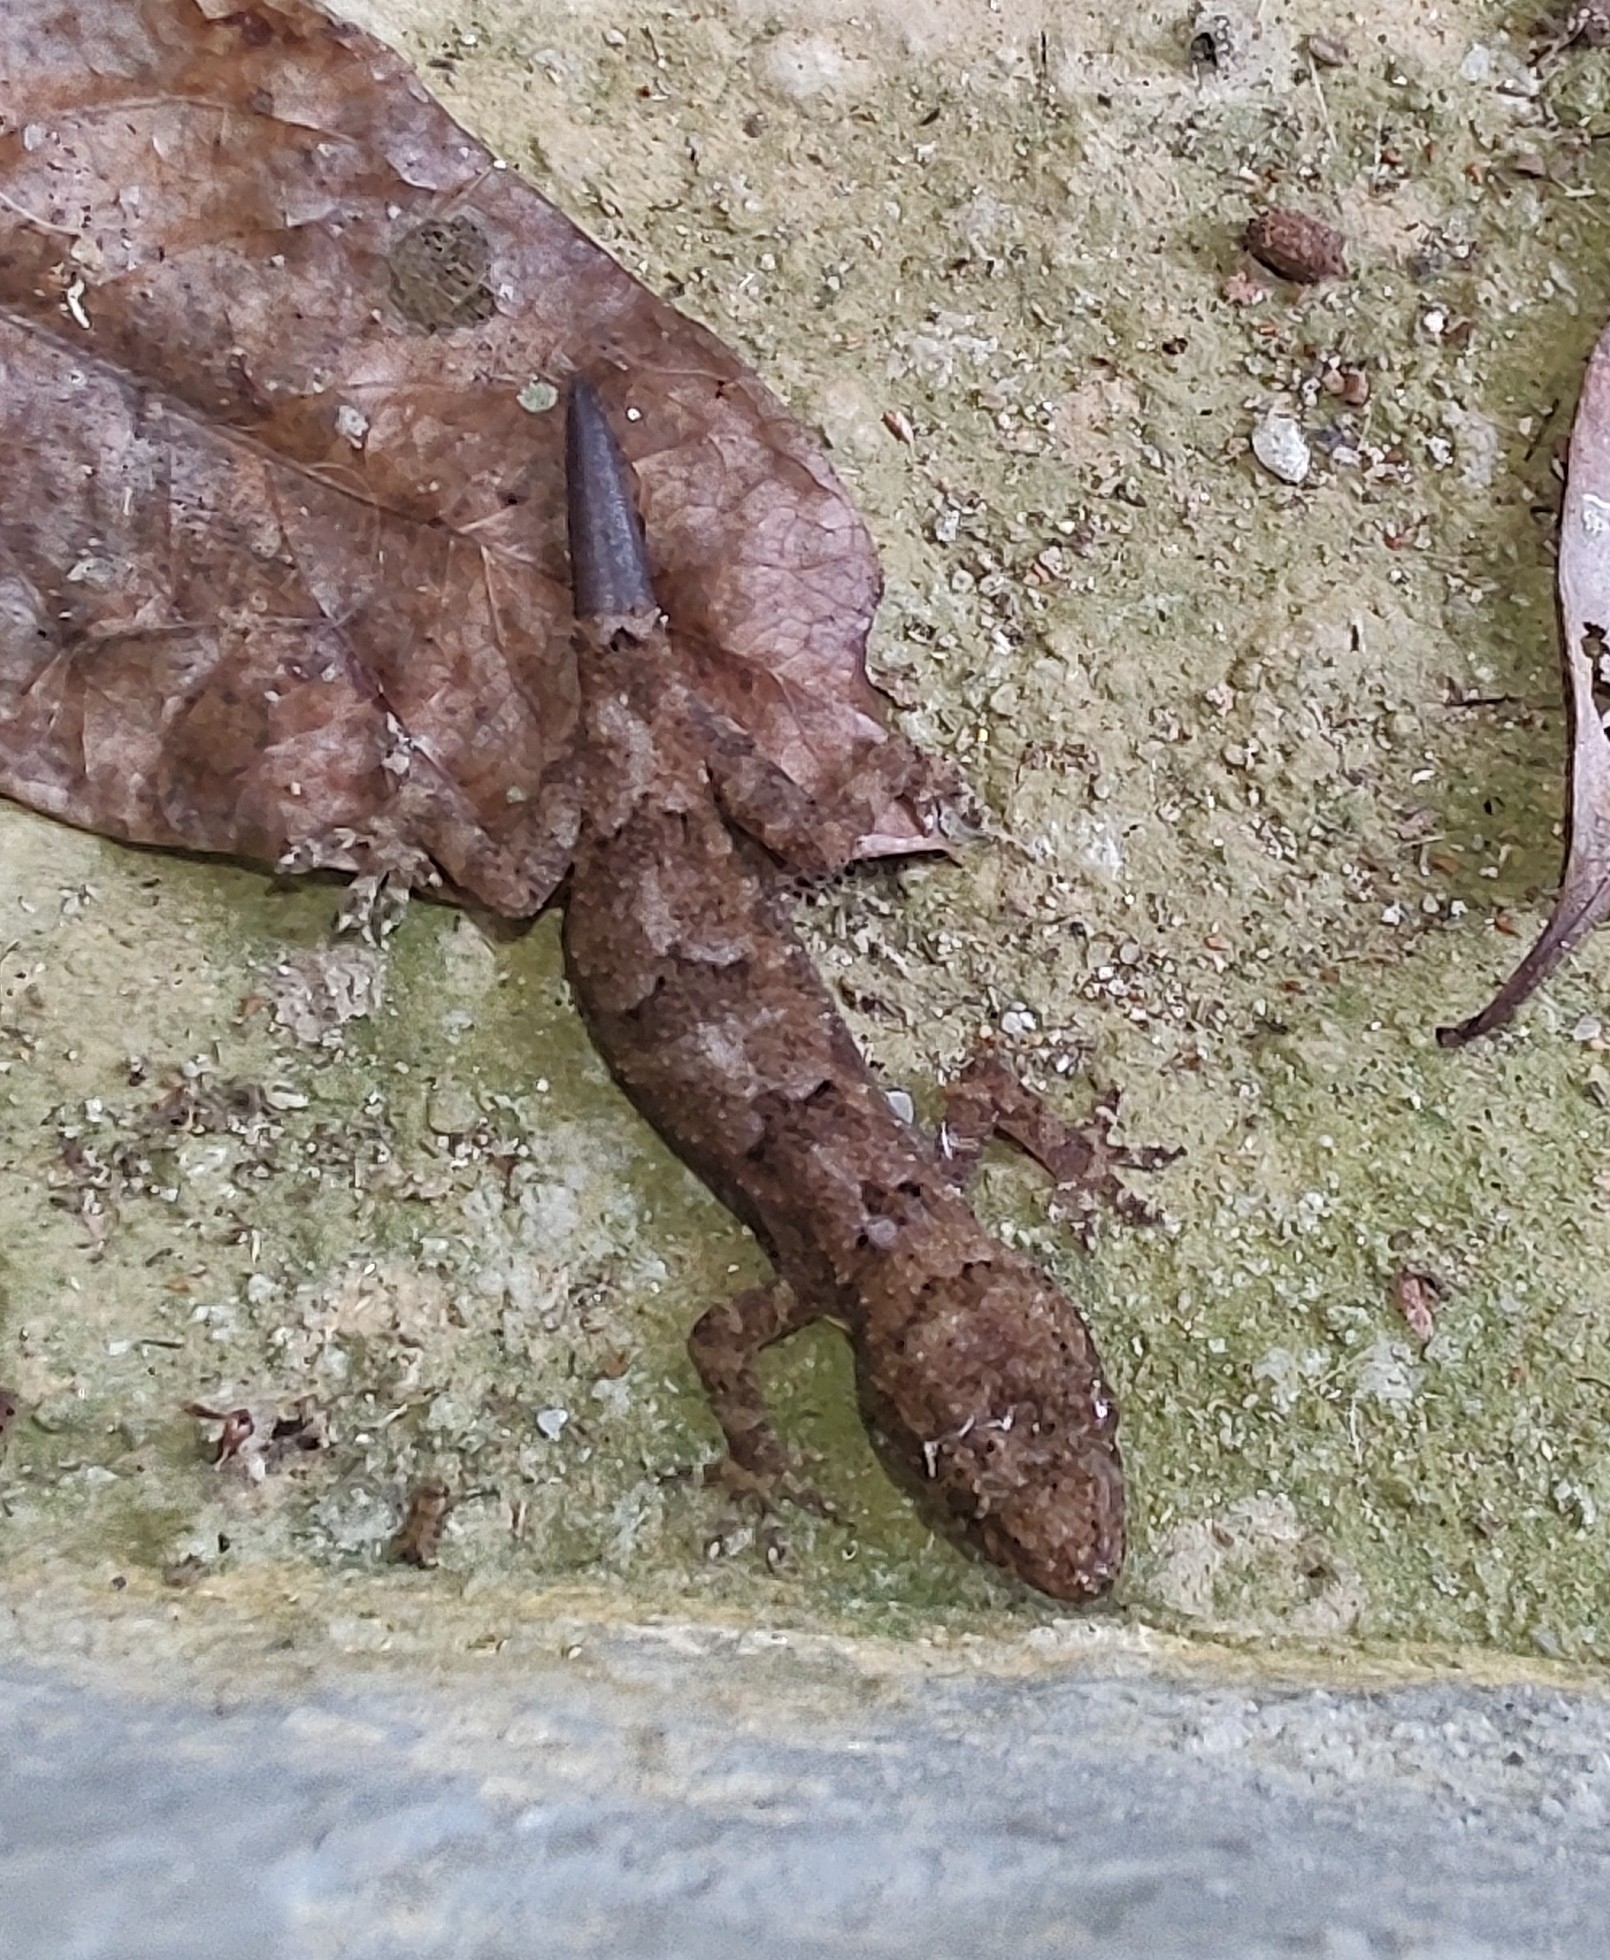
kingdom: Animalia
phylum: Chordata
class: Squamata
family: Gekkonidae
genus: Hemidactylus
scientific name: Hemidactylus mabouia
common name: House gecko
